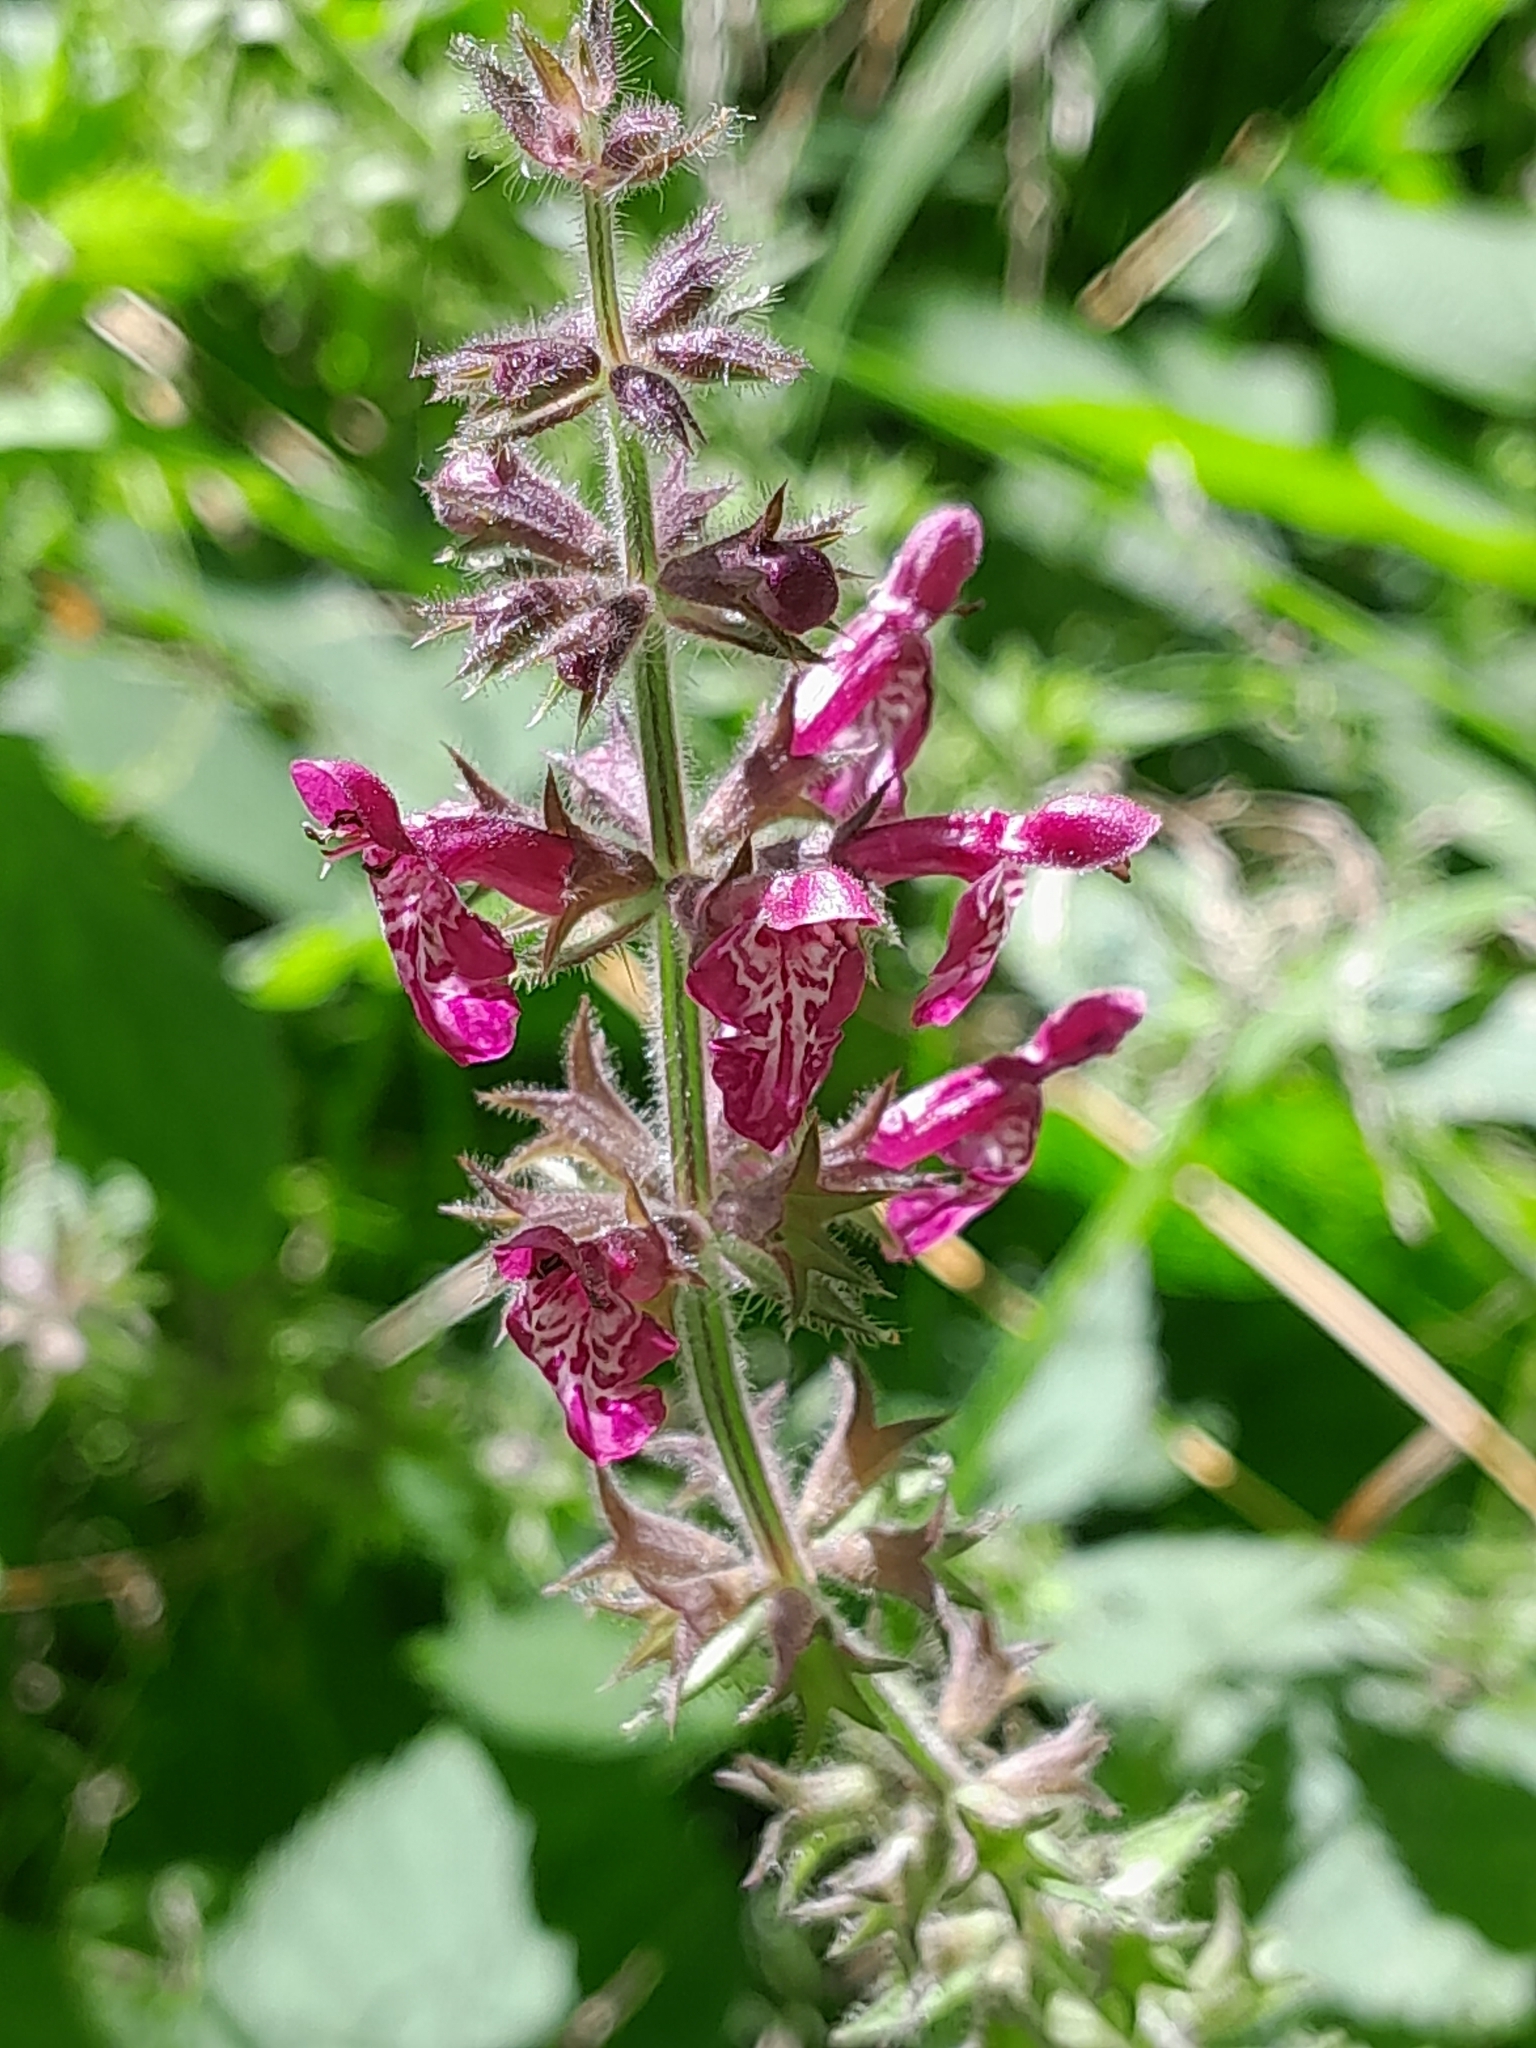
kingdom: Plantae
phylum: Tracheophyta
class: Magnoliopsida
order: Lamiales
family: Lamiaceae
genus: Stachys
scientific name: Stachys sylvatica
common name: Hedge woundwort
